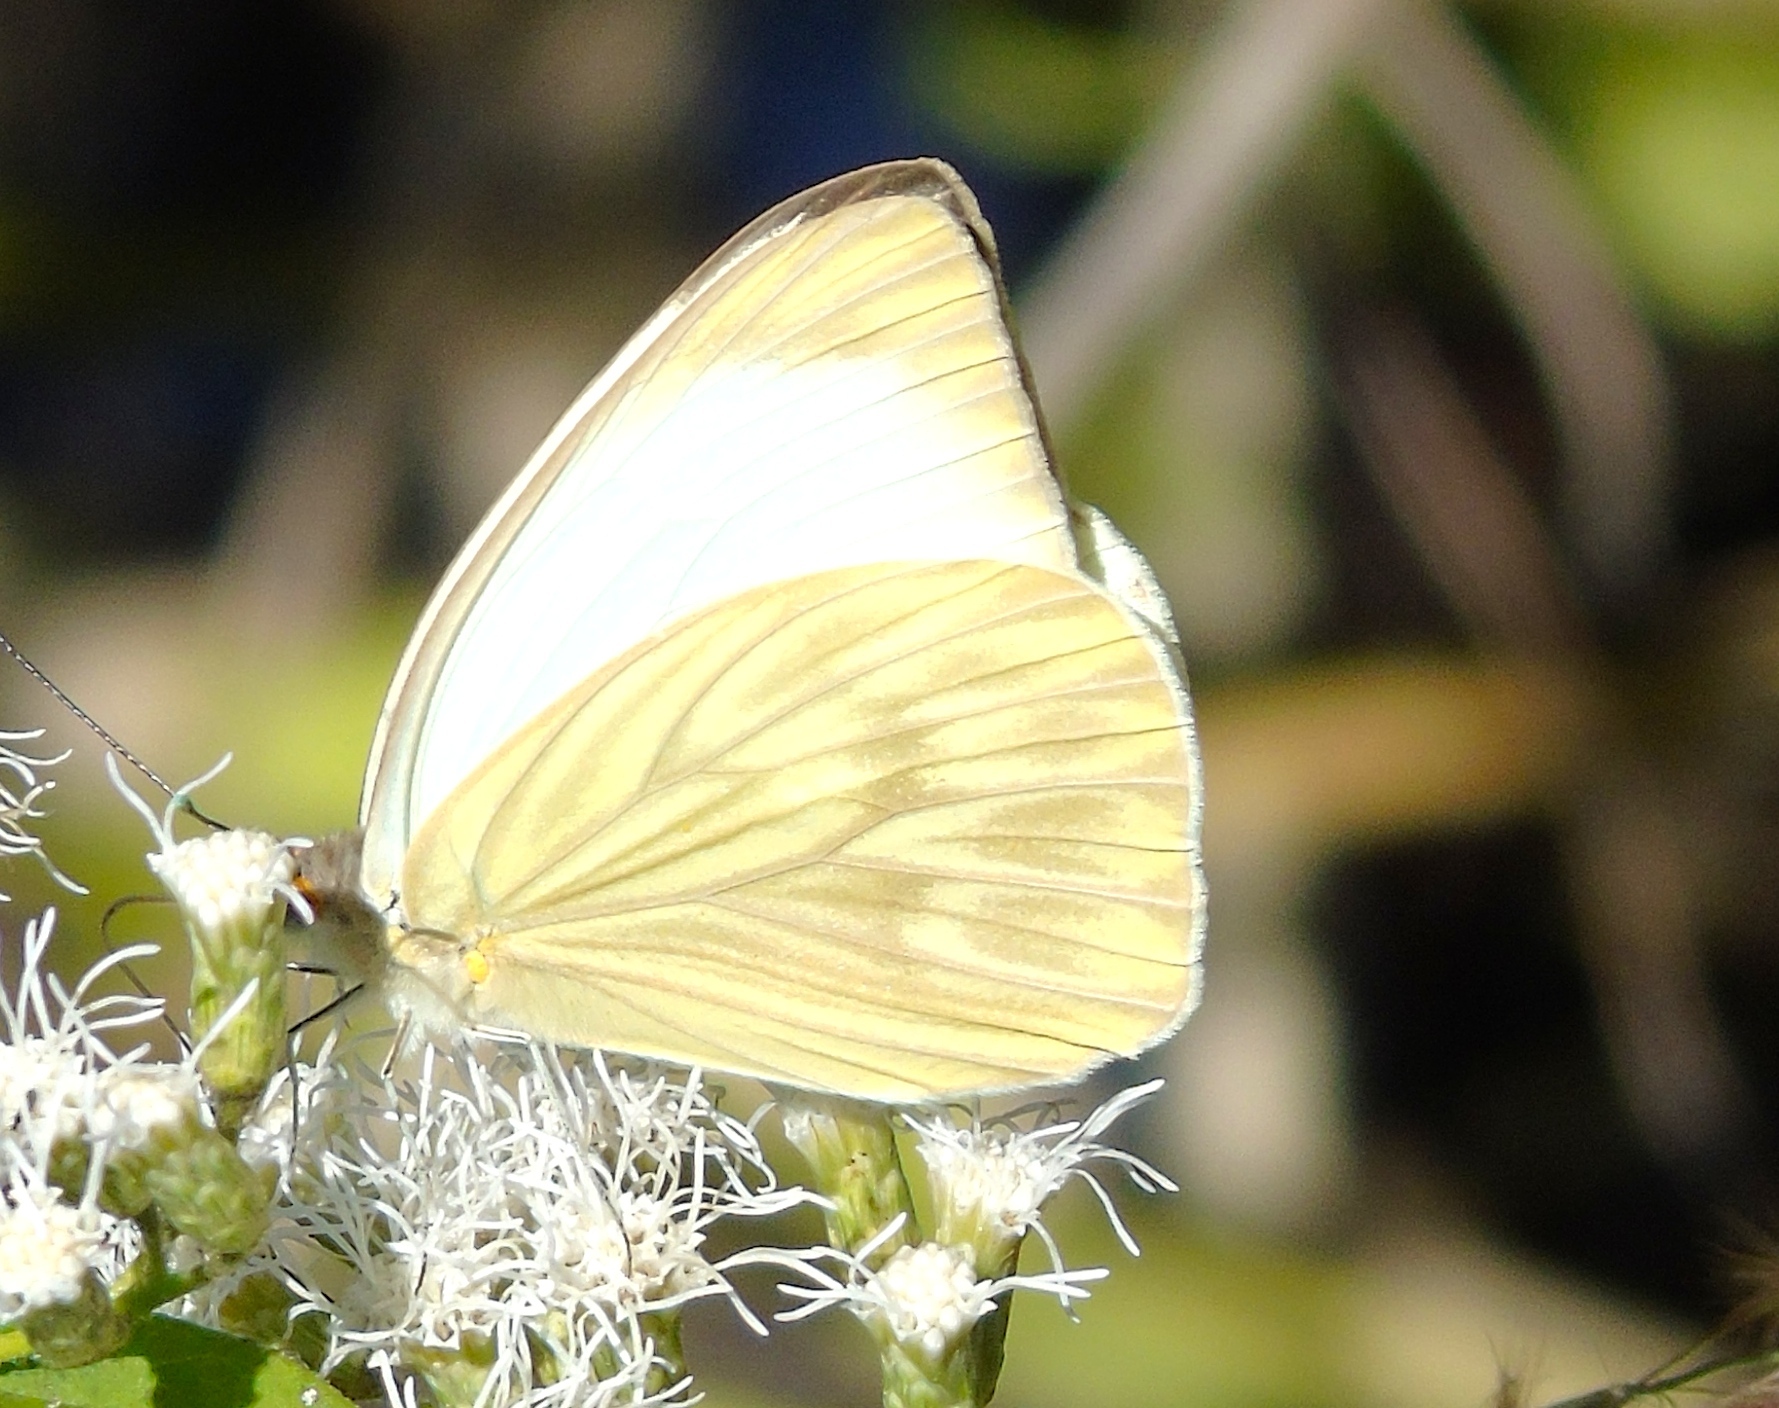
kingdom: Animalia
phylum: Arthropoda
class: Insecta
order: Lepidoptera
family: Pieridae
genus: Ascia
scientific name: Ascia monuste
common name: Great southern white
